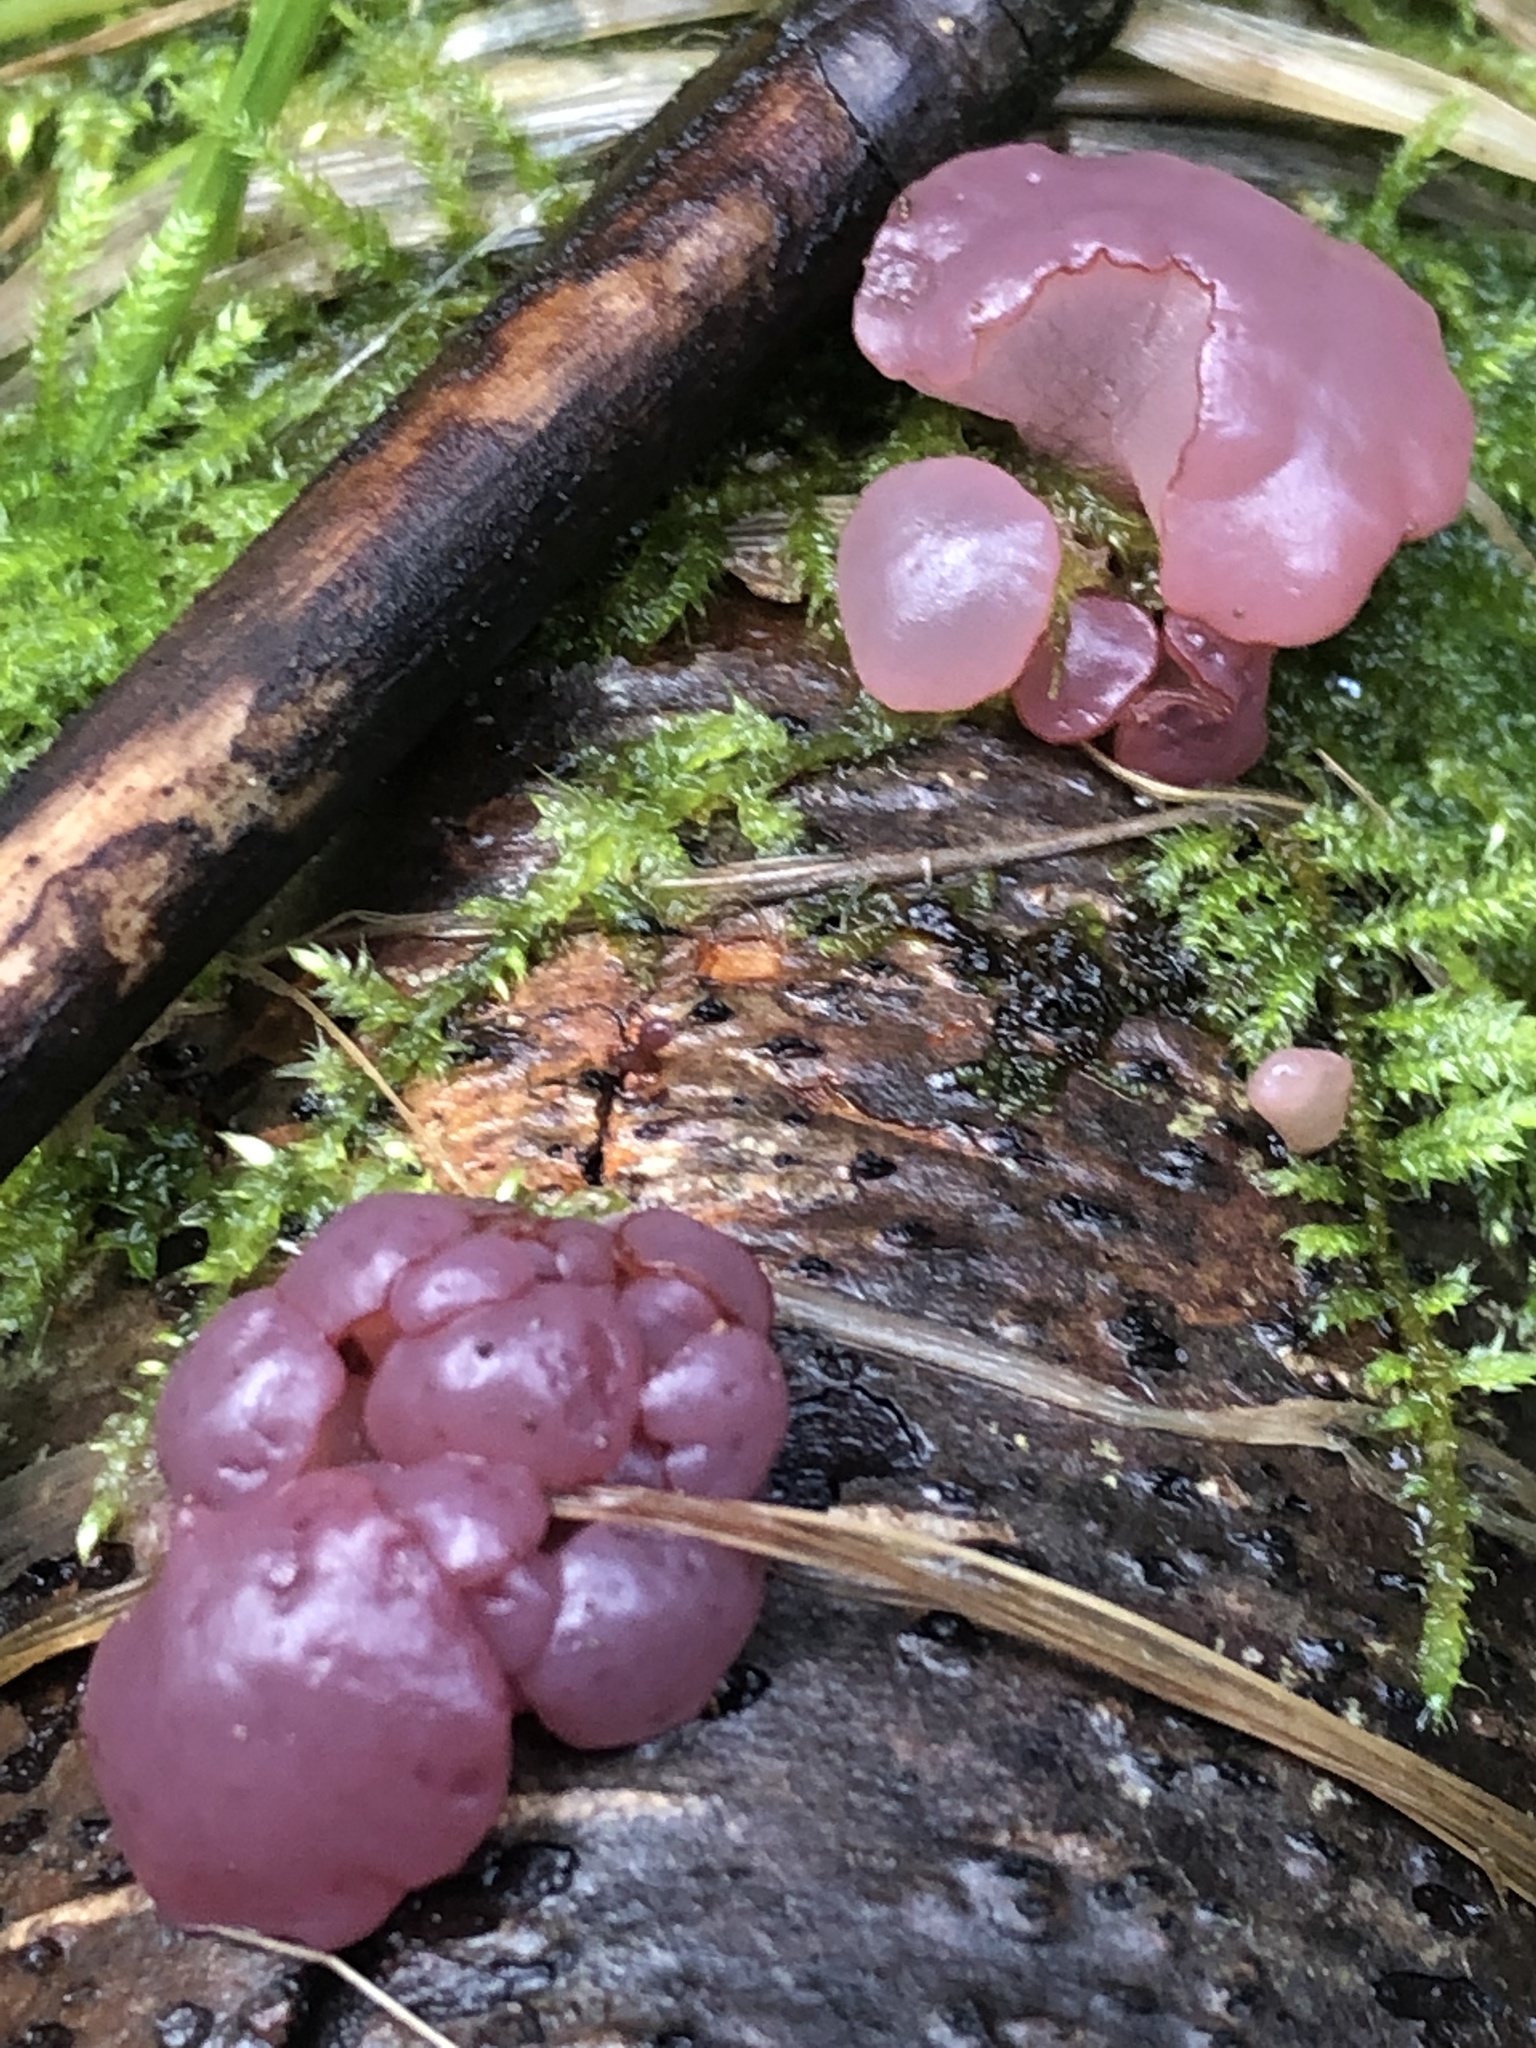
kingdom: Fungi
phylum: Ascomycota
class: Leotiomycetes
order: Helotiales
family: Gelatinodiscaceae
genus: Ascocoryne
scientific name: Ascocoryne sarcoides
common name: Purple jellydisc
